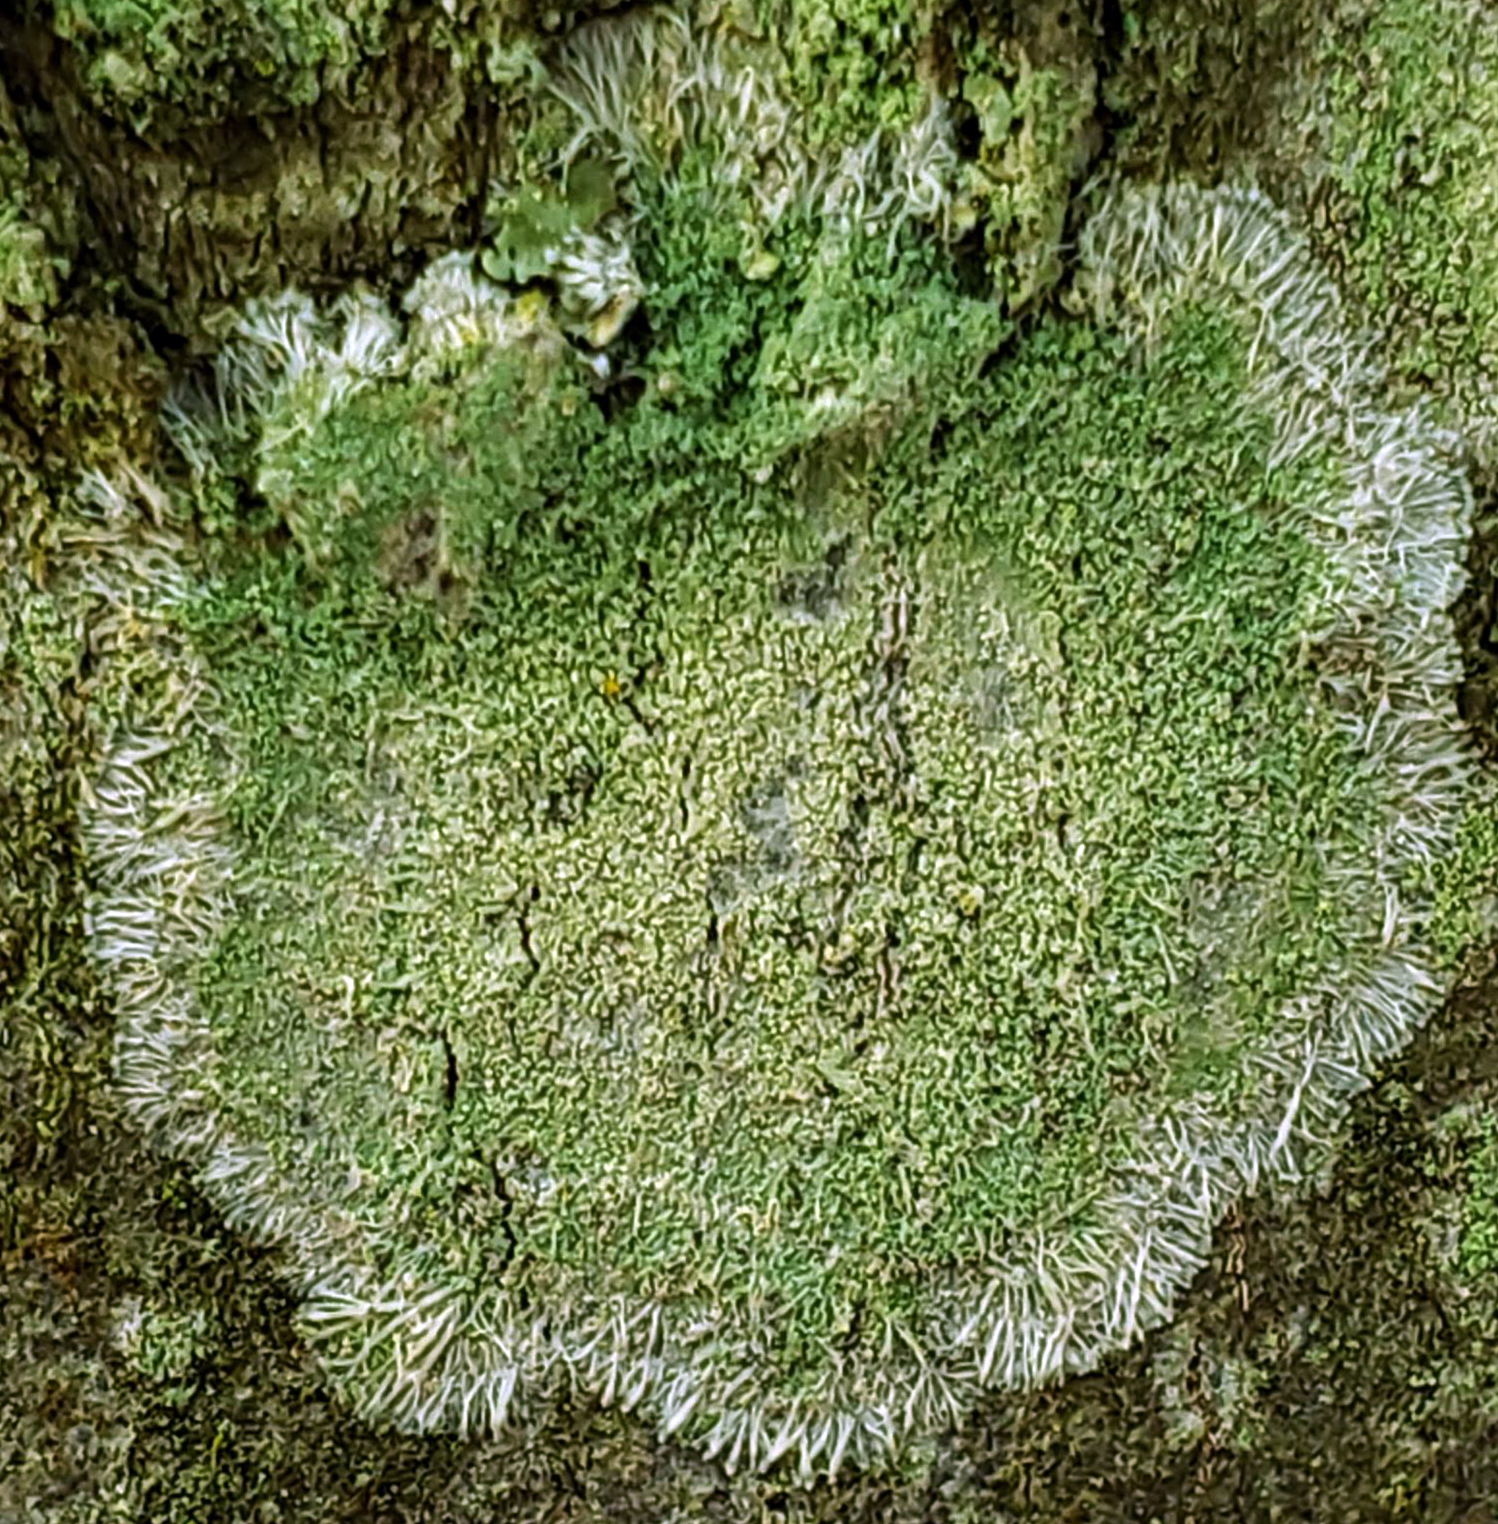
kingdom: Fungi
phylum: Ascomycota
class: Lecanoromycetes
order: Pertusariales
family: Pertusariaceae
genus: Verseghya
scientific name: Verseghya thysanophora
